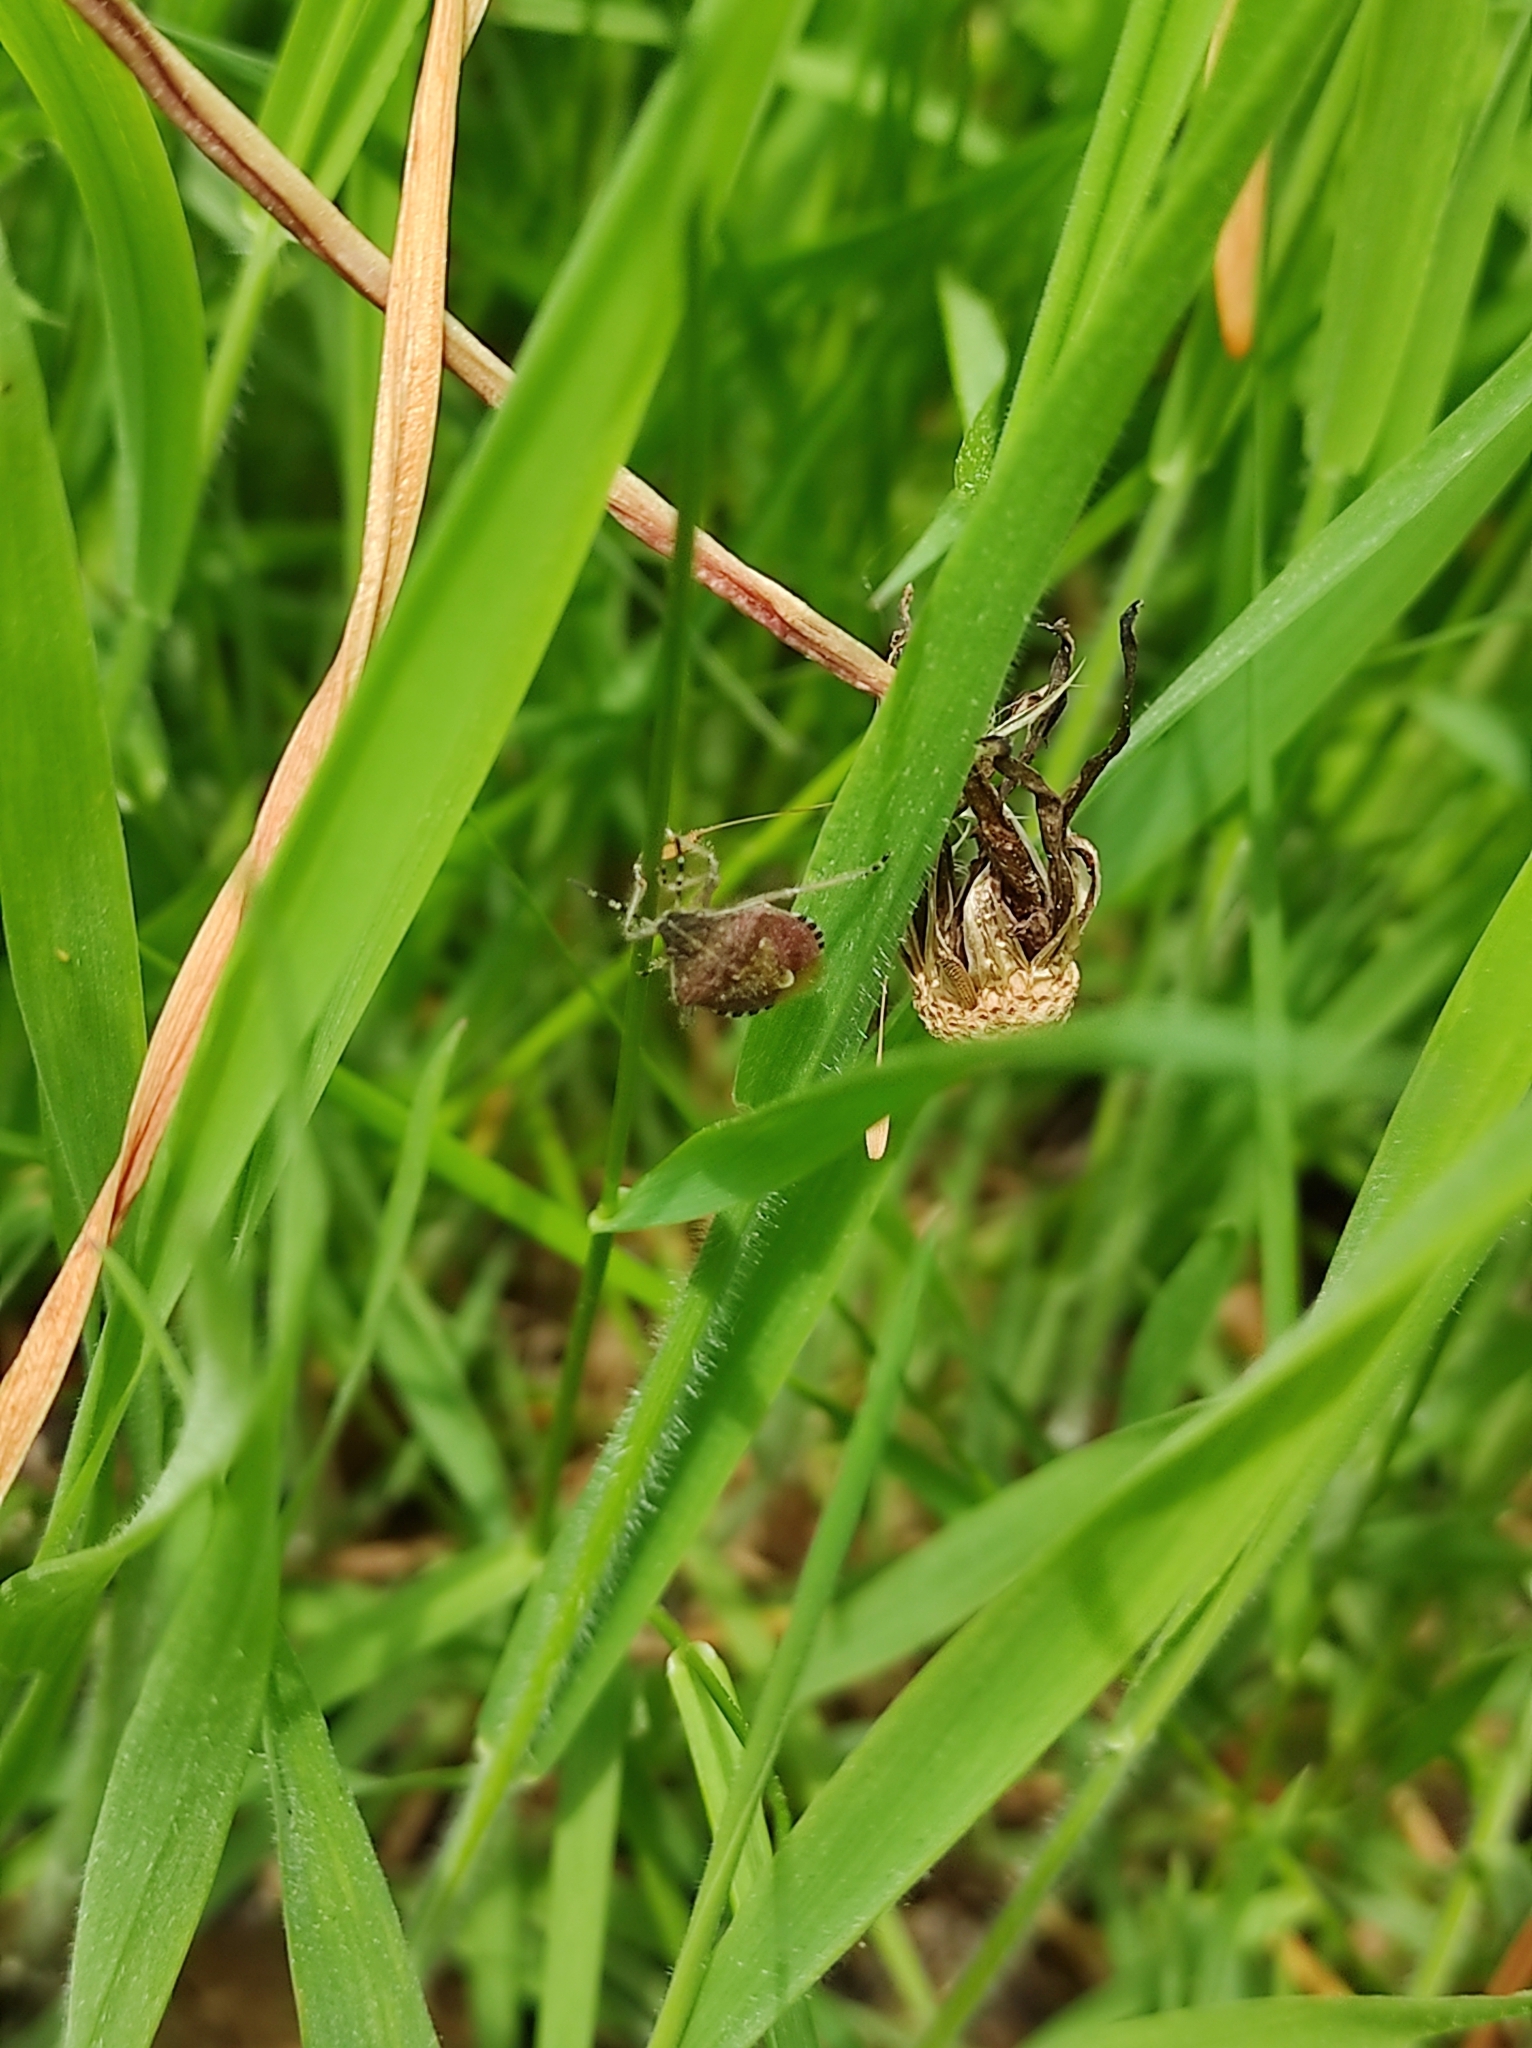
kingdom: Animalia
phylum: Arthropoda
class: Insecta
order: Hemiptera
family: Pentatomidae
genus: Dolycoris
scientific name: Dolycoris baccarum
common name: Sloe bug
